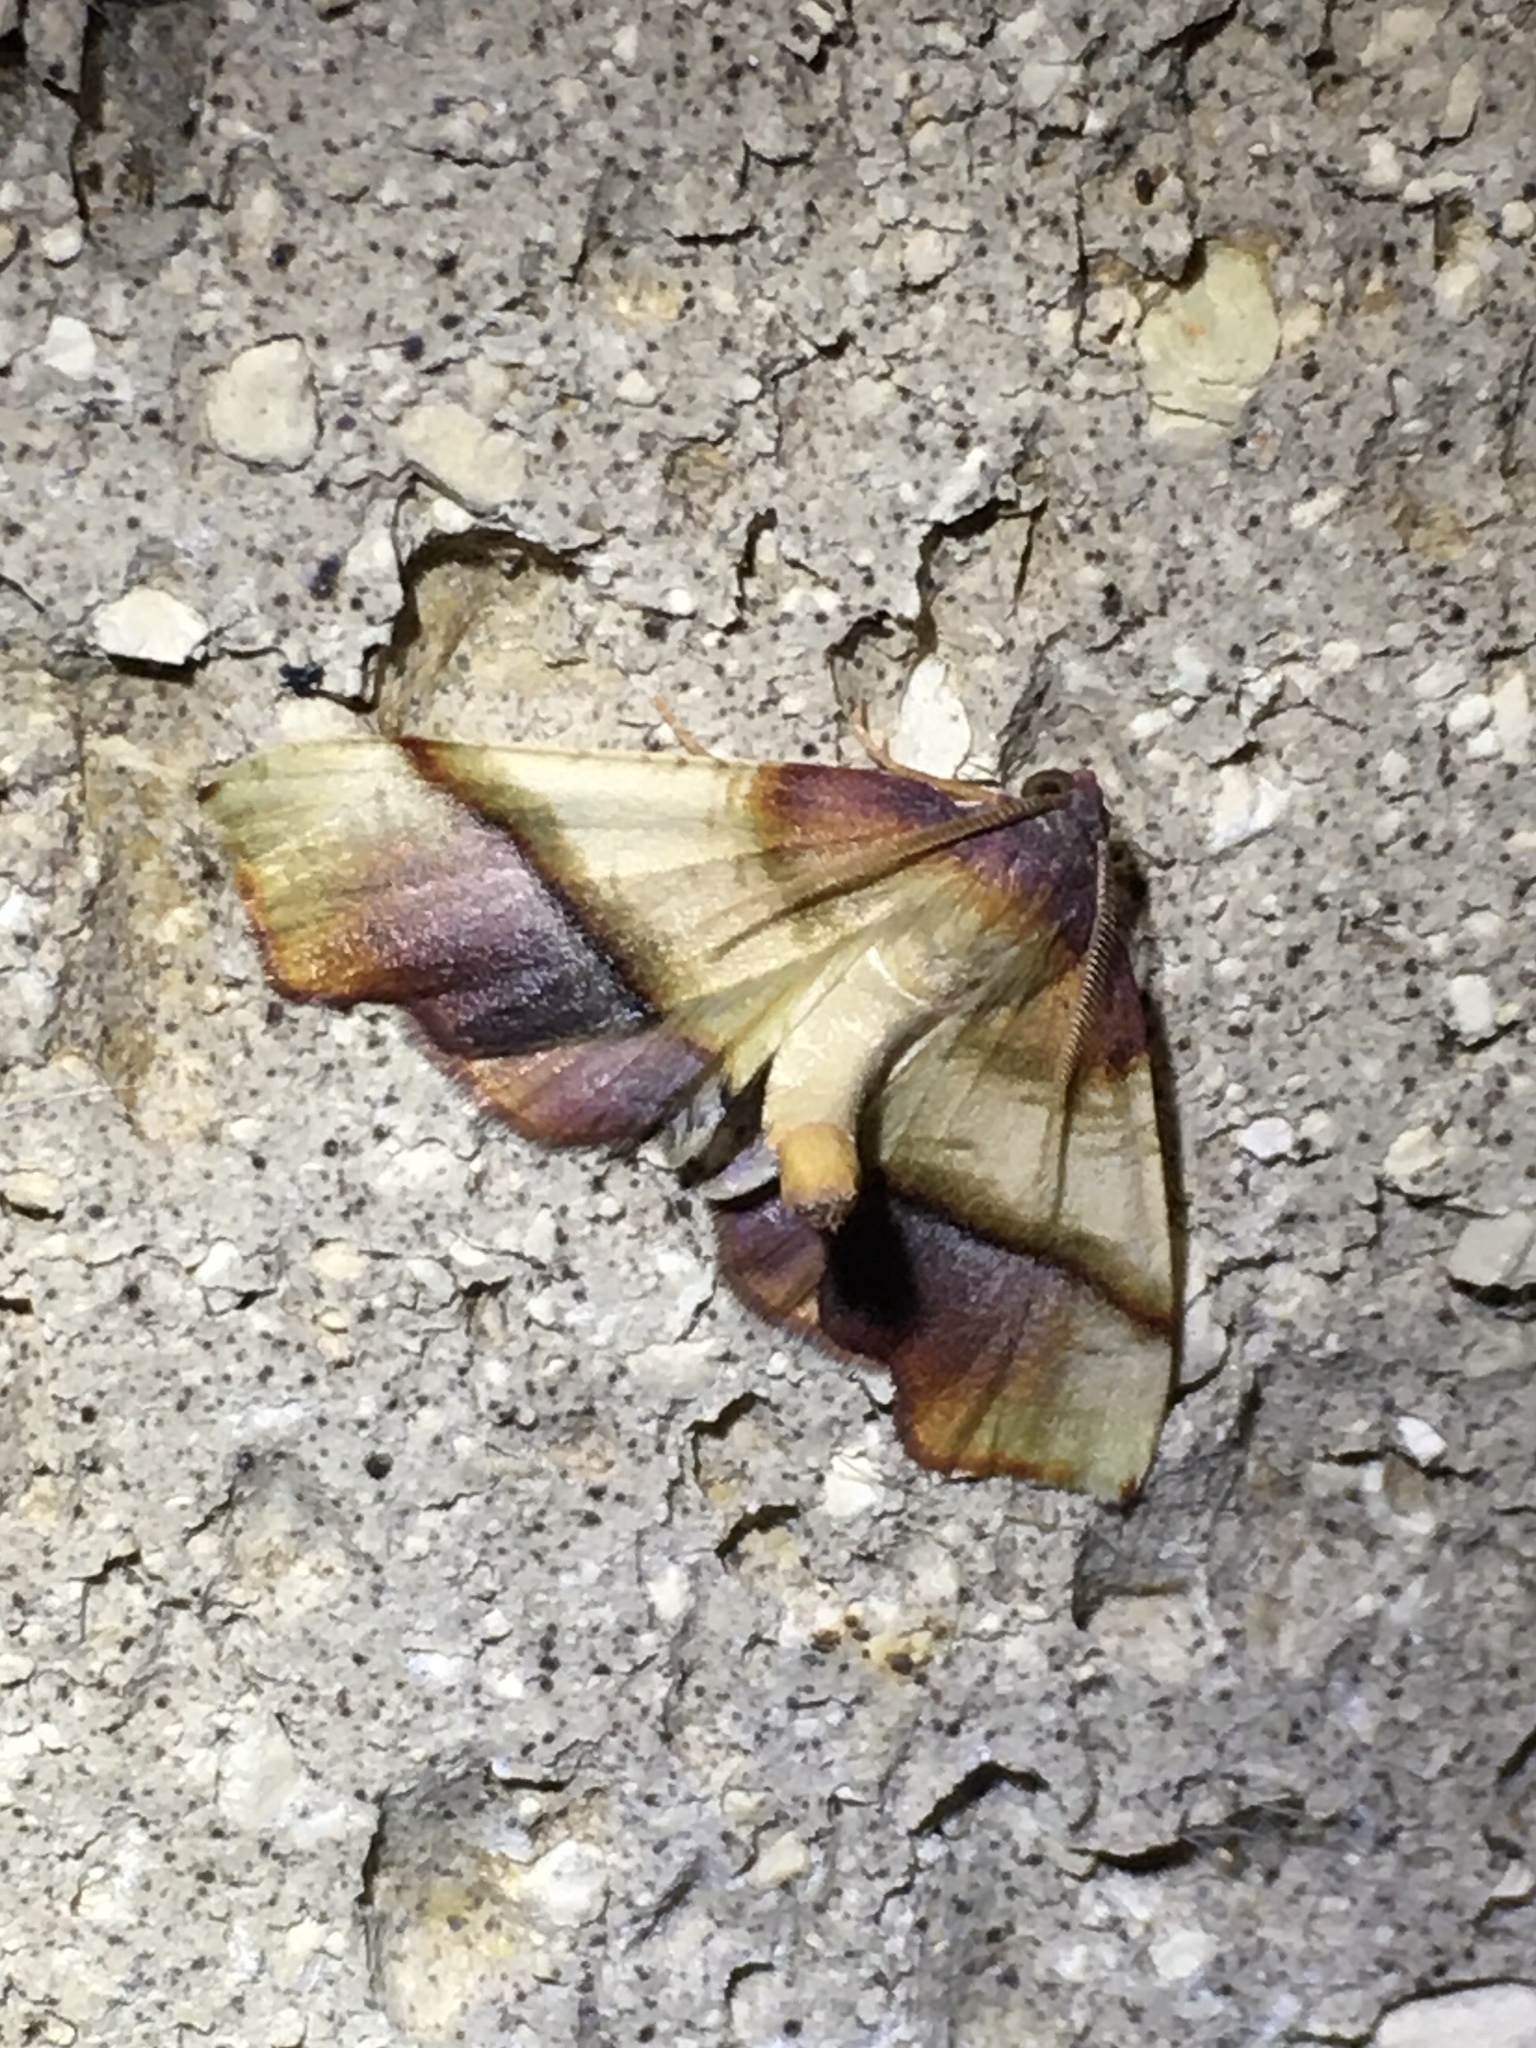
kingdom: Animalia
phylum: Arthropoda
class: Insecta
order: Lepidoptera
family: Geometridae
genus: Plagodis
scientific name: Plagodis phlogosaria
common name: Straight-lined plagodis
